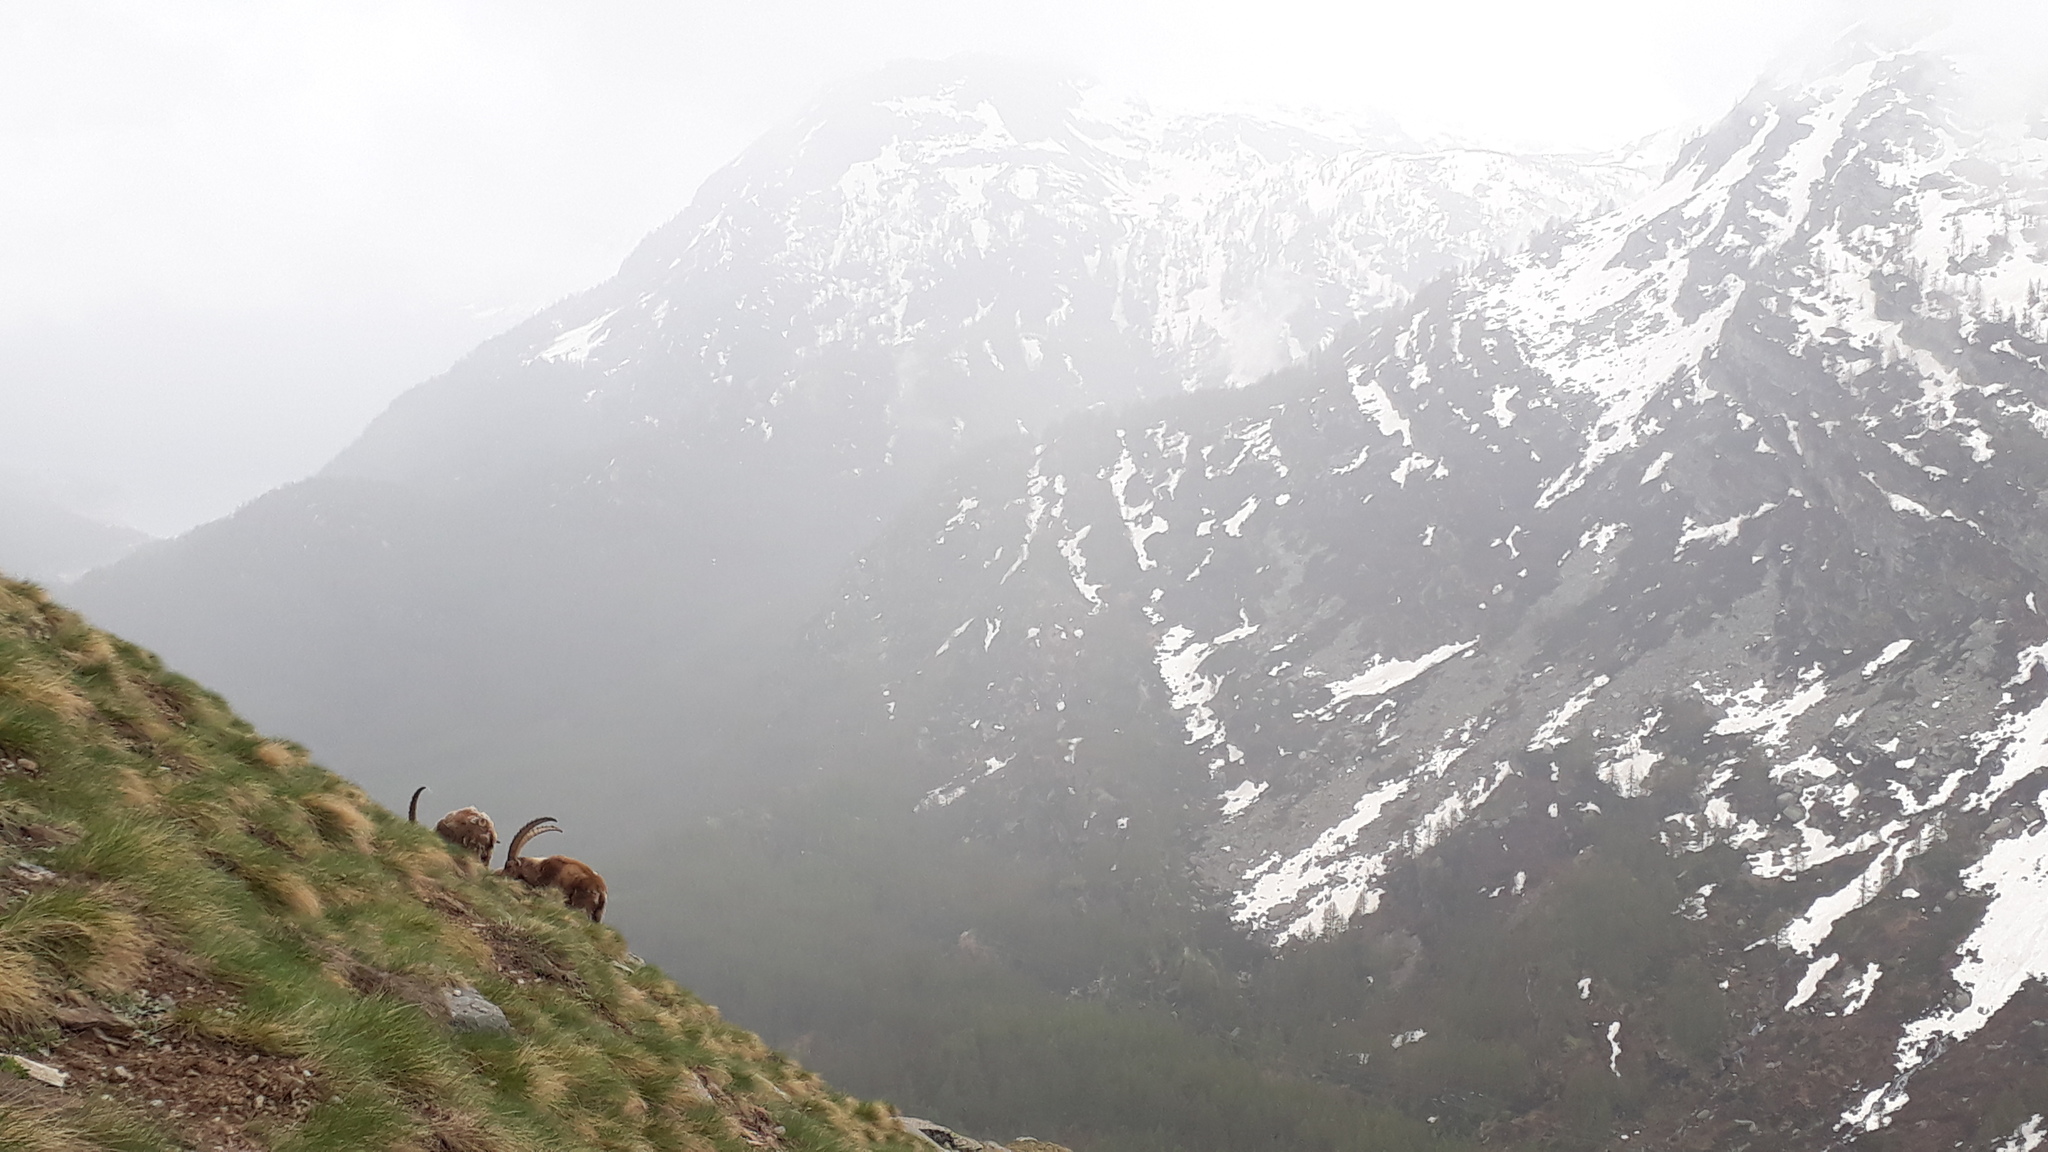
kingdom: Animalia
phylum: Chordata
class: Mammalia
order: Artiodactyla
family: Bovidae
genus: Capra
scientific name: Capra ibex
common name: Alpine ibex
